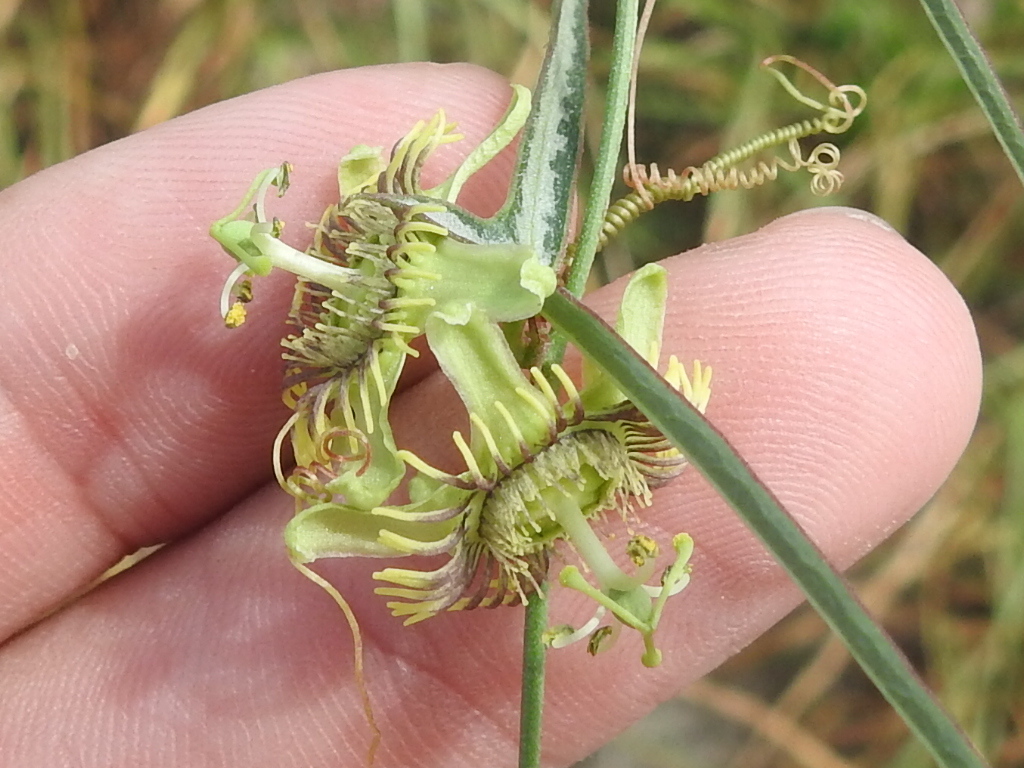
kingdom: Plantae
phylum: Tracheophyta
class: Magnoliopsida
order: Malpighiales
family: Passifloraceae
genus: Passiflora
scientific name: Passiflora tenuiloba
